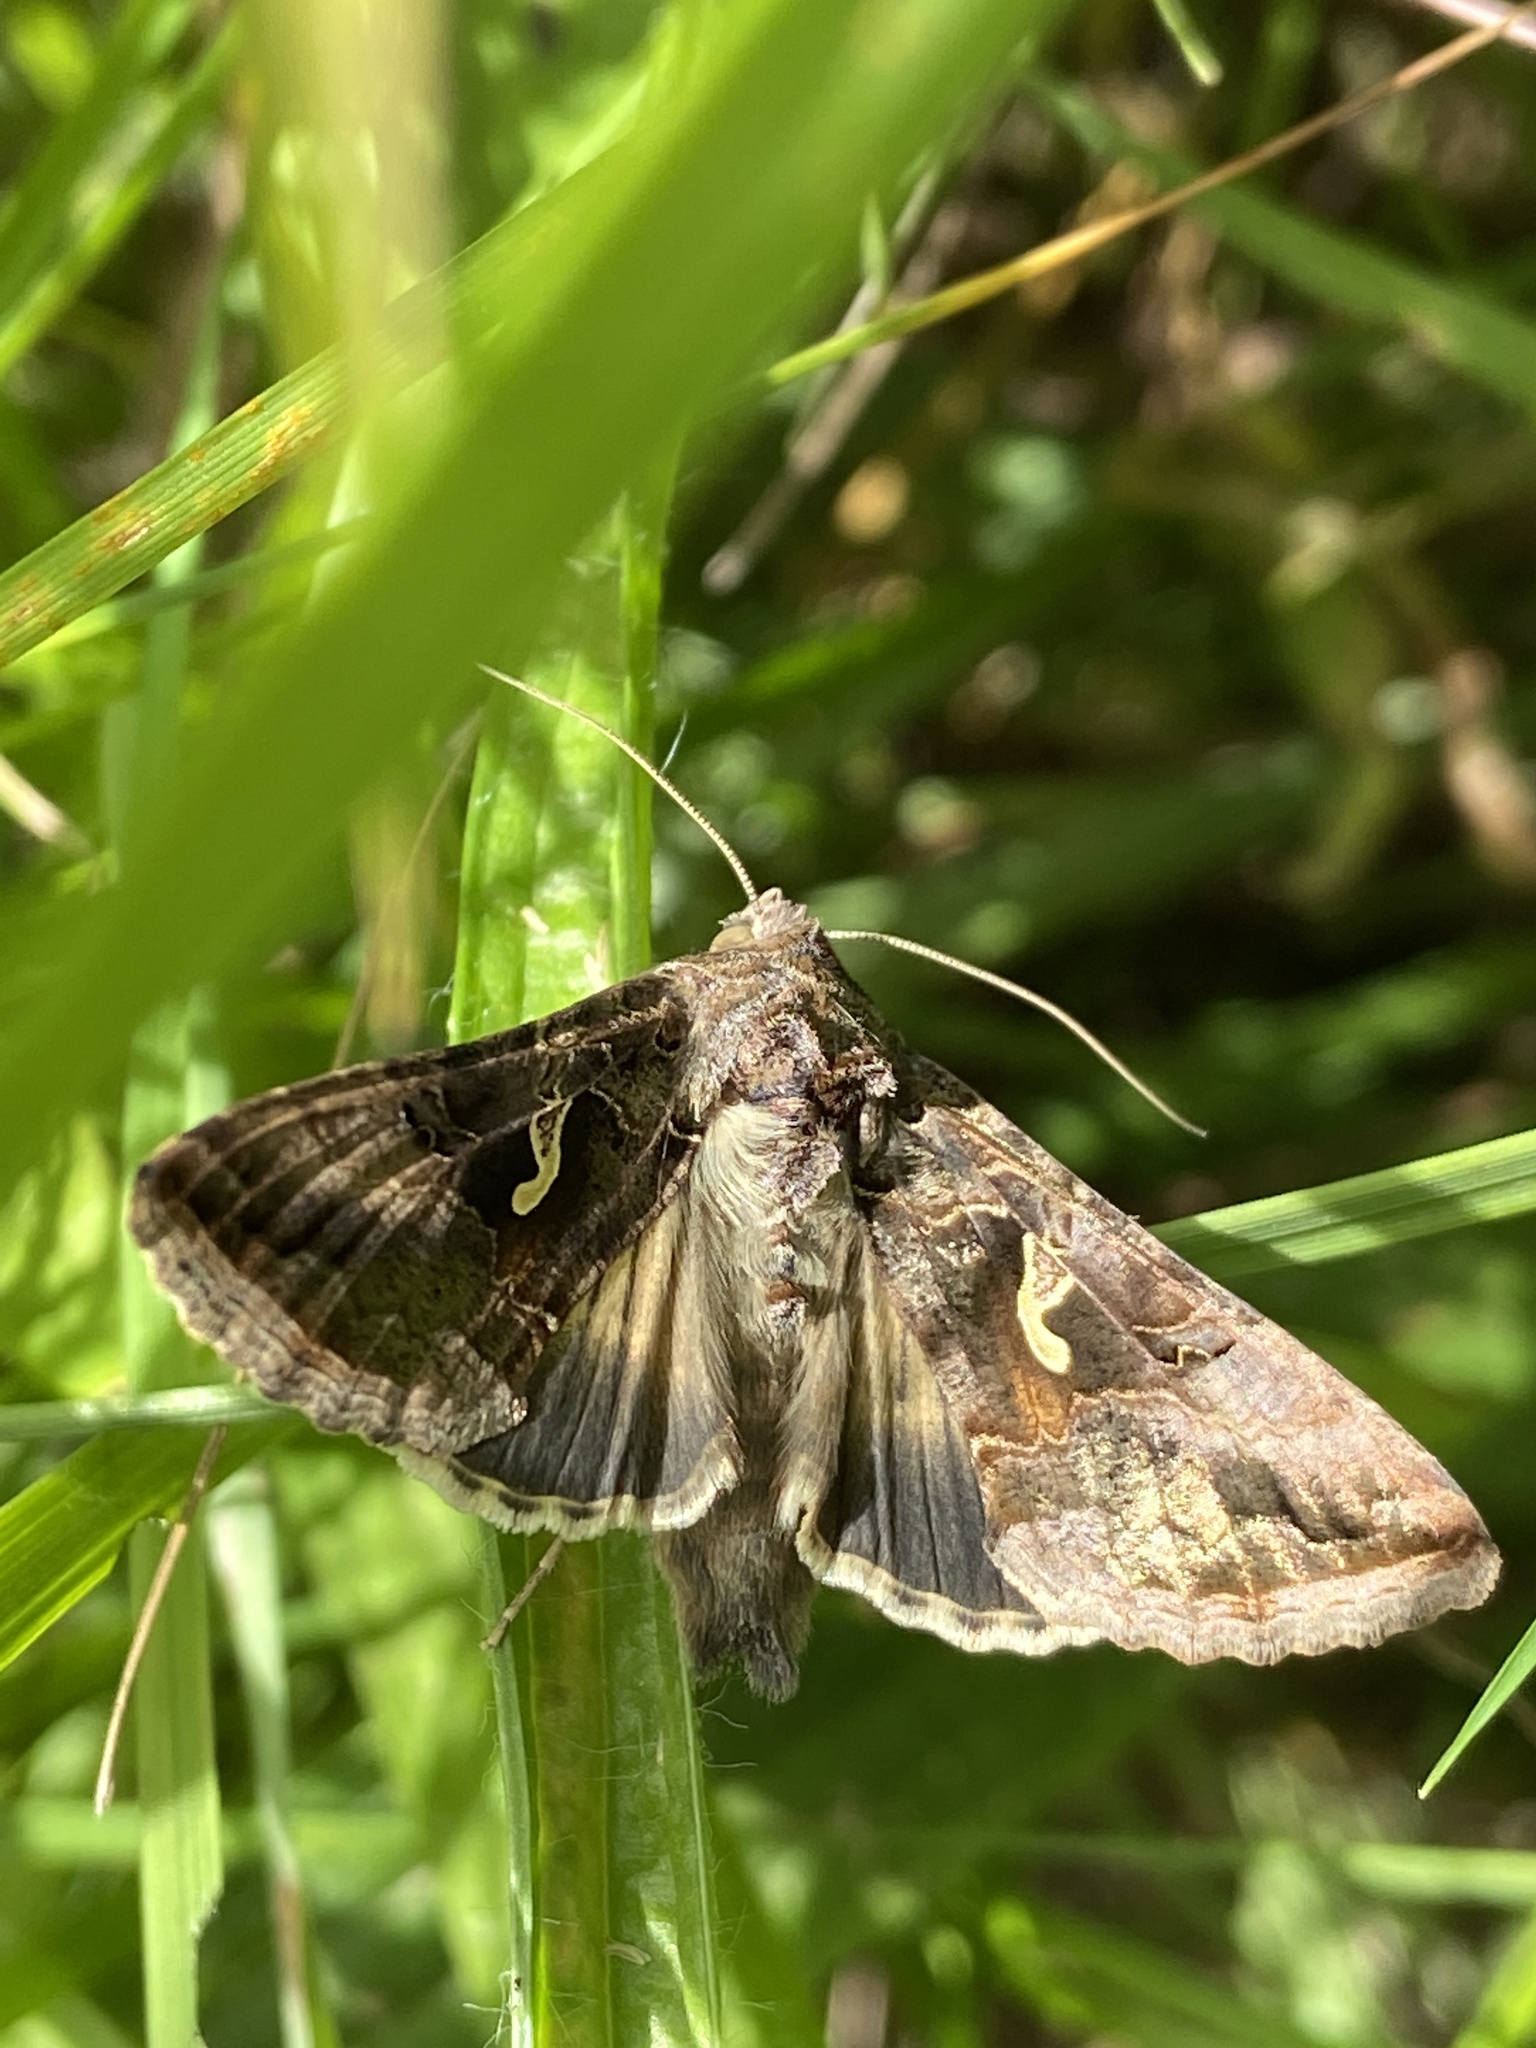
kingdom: Animalia
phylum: Arthropoda
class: Insecta
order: Lepidoptera
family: Noctuidae
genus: Autographa
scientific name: Autographa gamma
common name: Silver y
